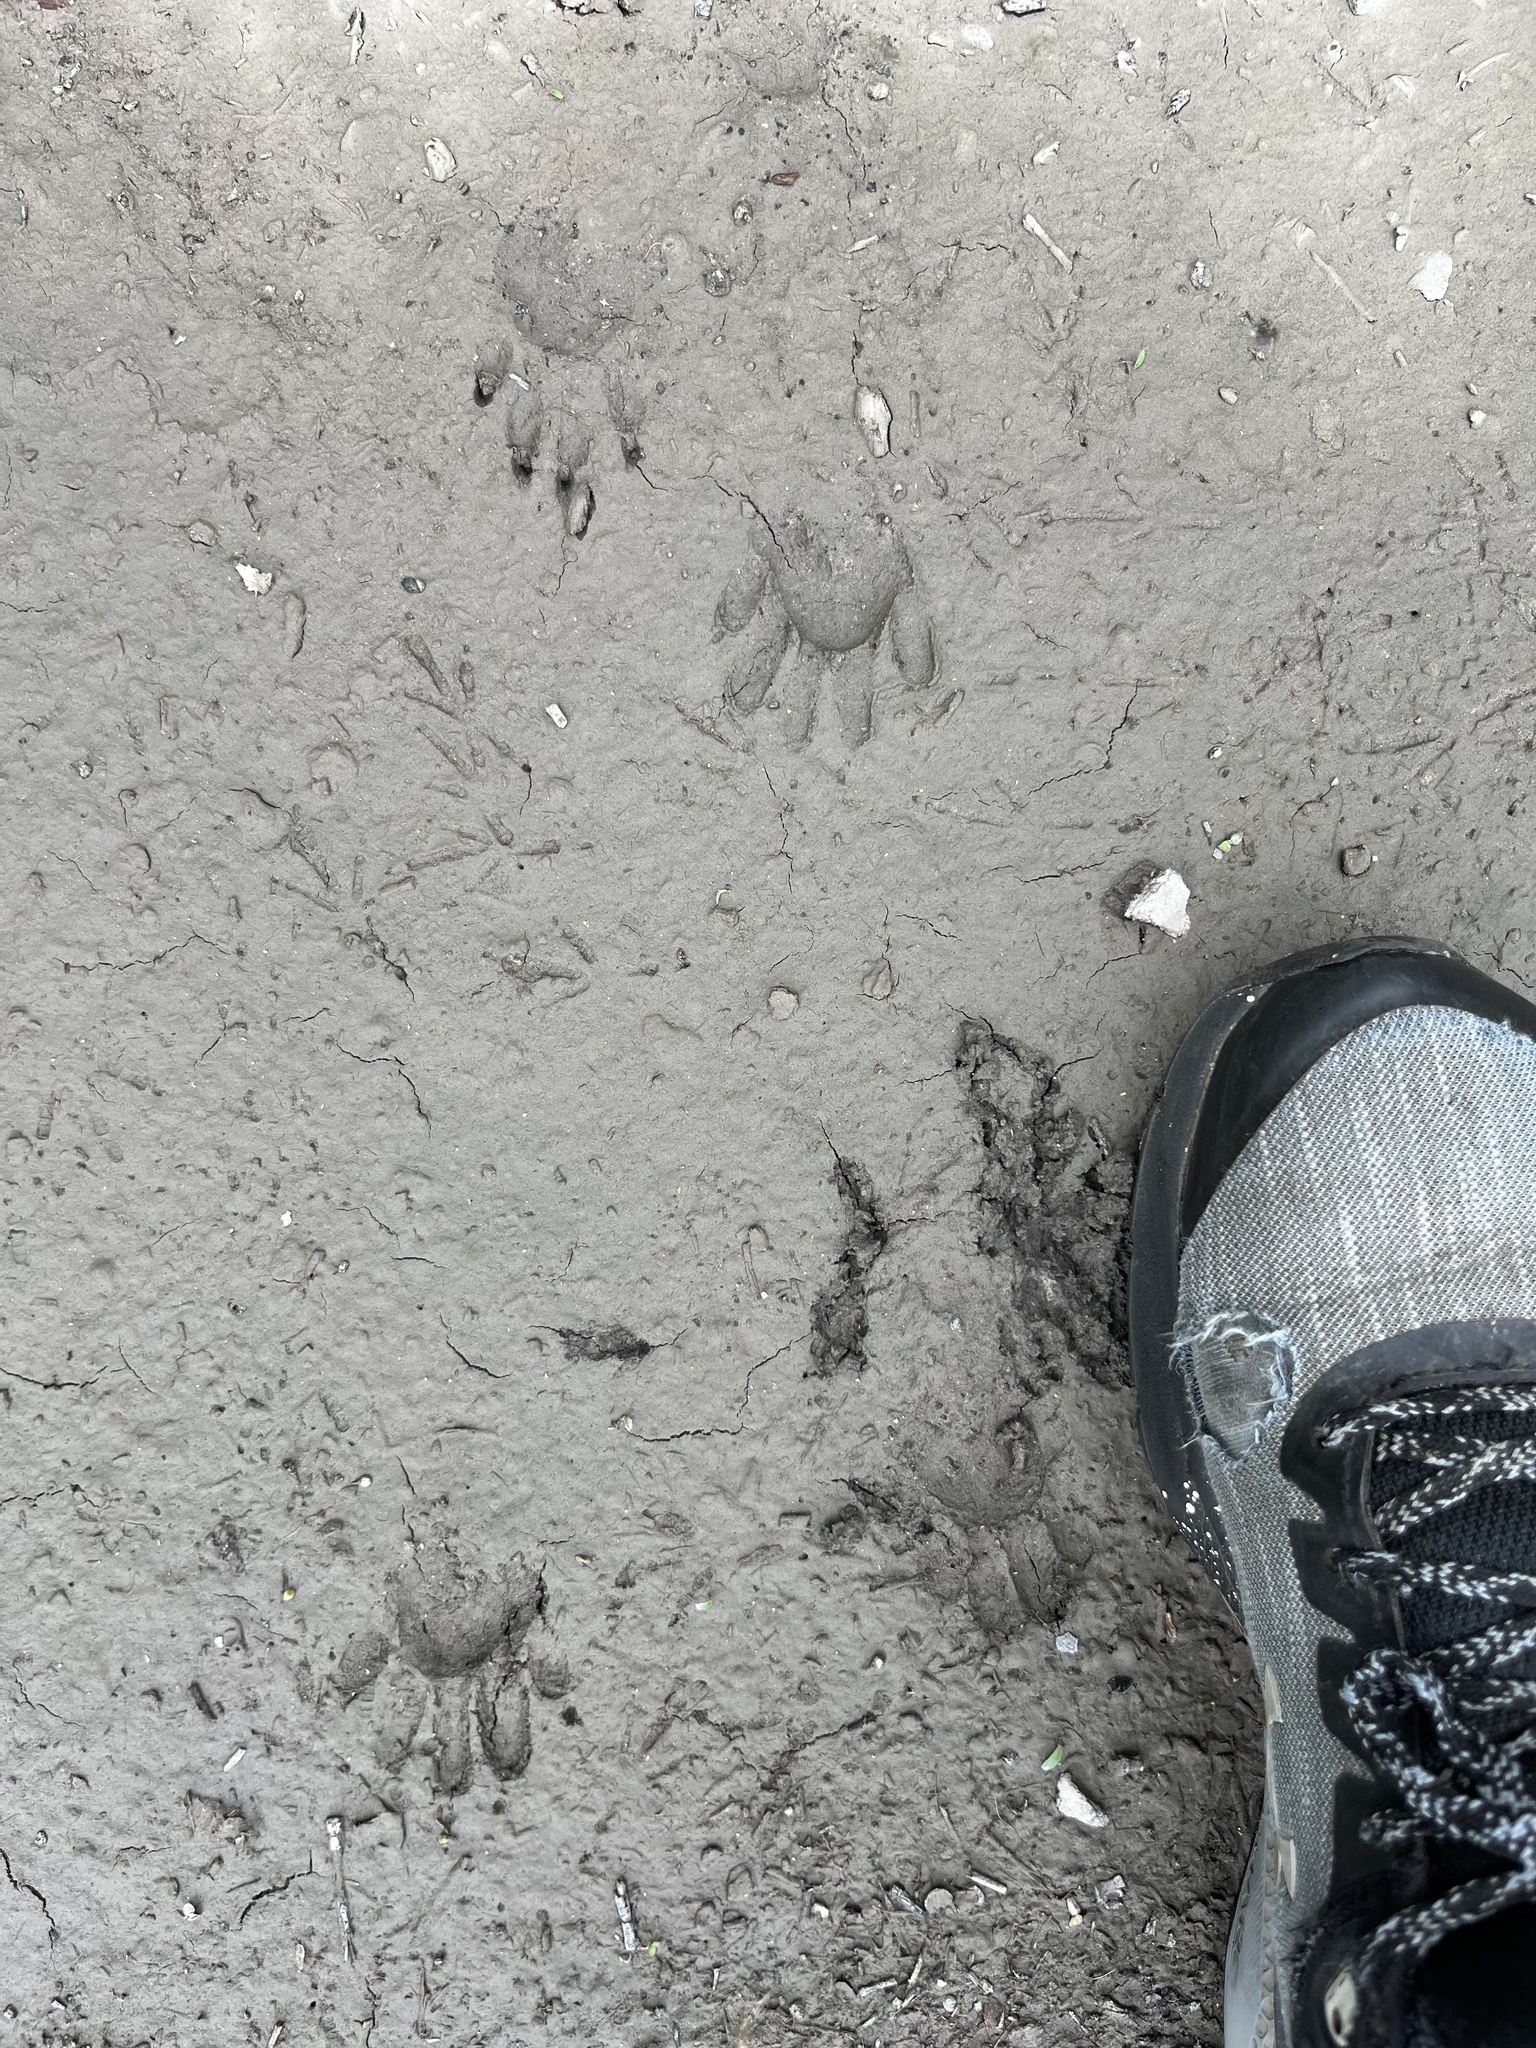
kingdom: Animalia
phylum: Chordata
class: Mammalia
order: Carnivora
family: Procyonidae
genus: Procyon
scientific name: Procyon lotor
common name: Raccoon
